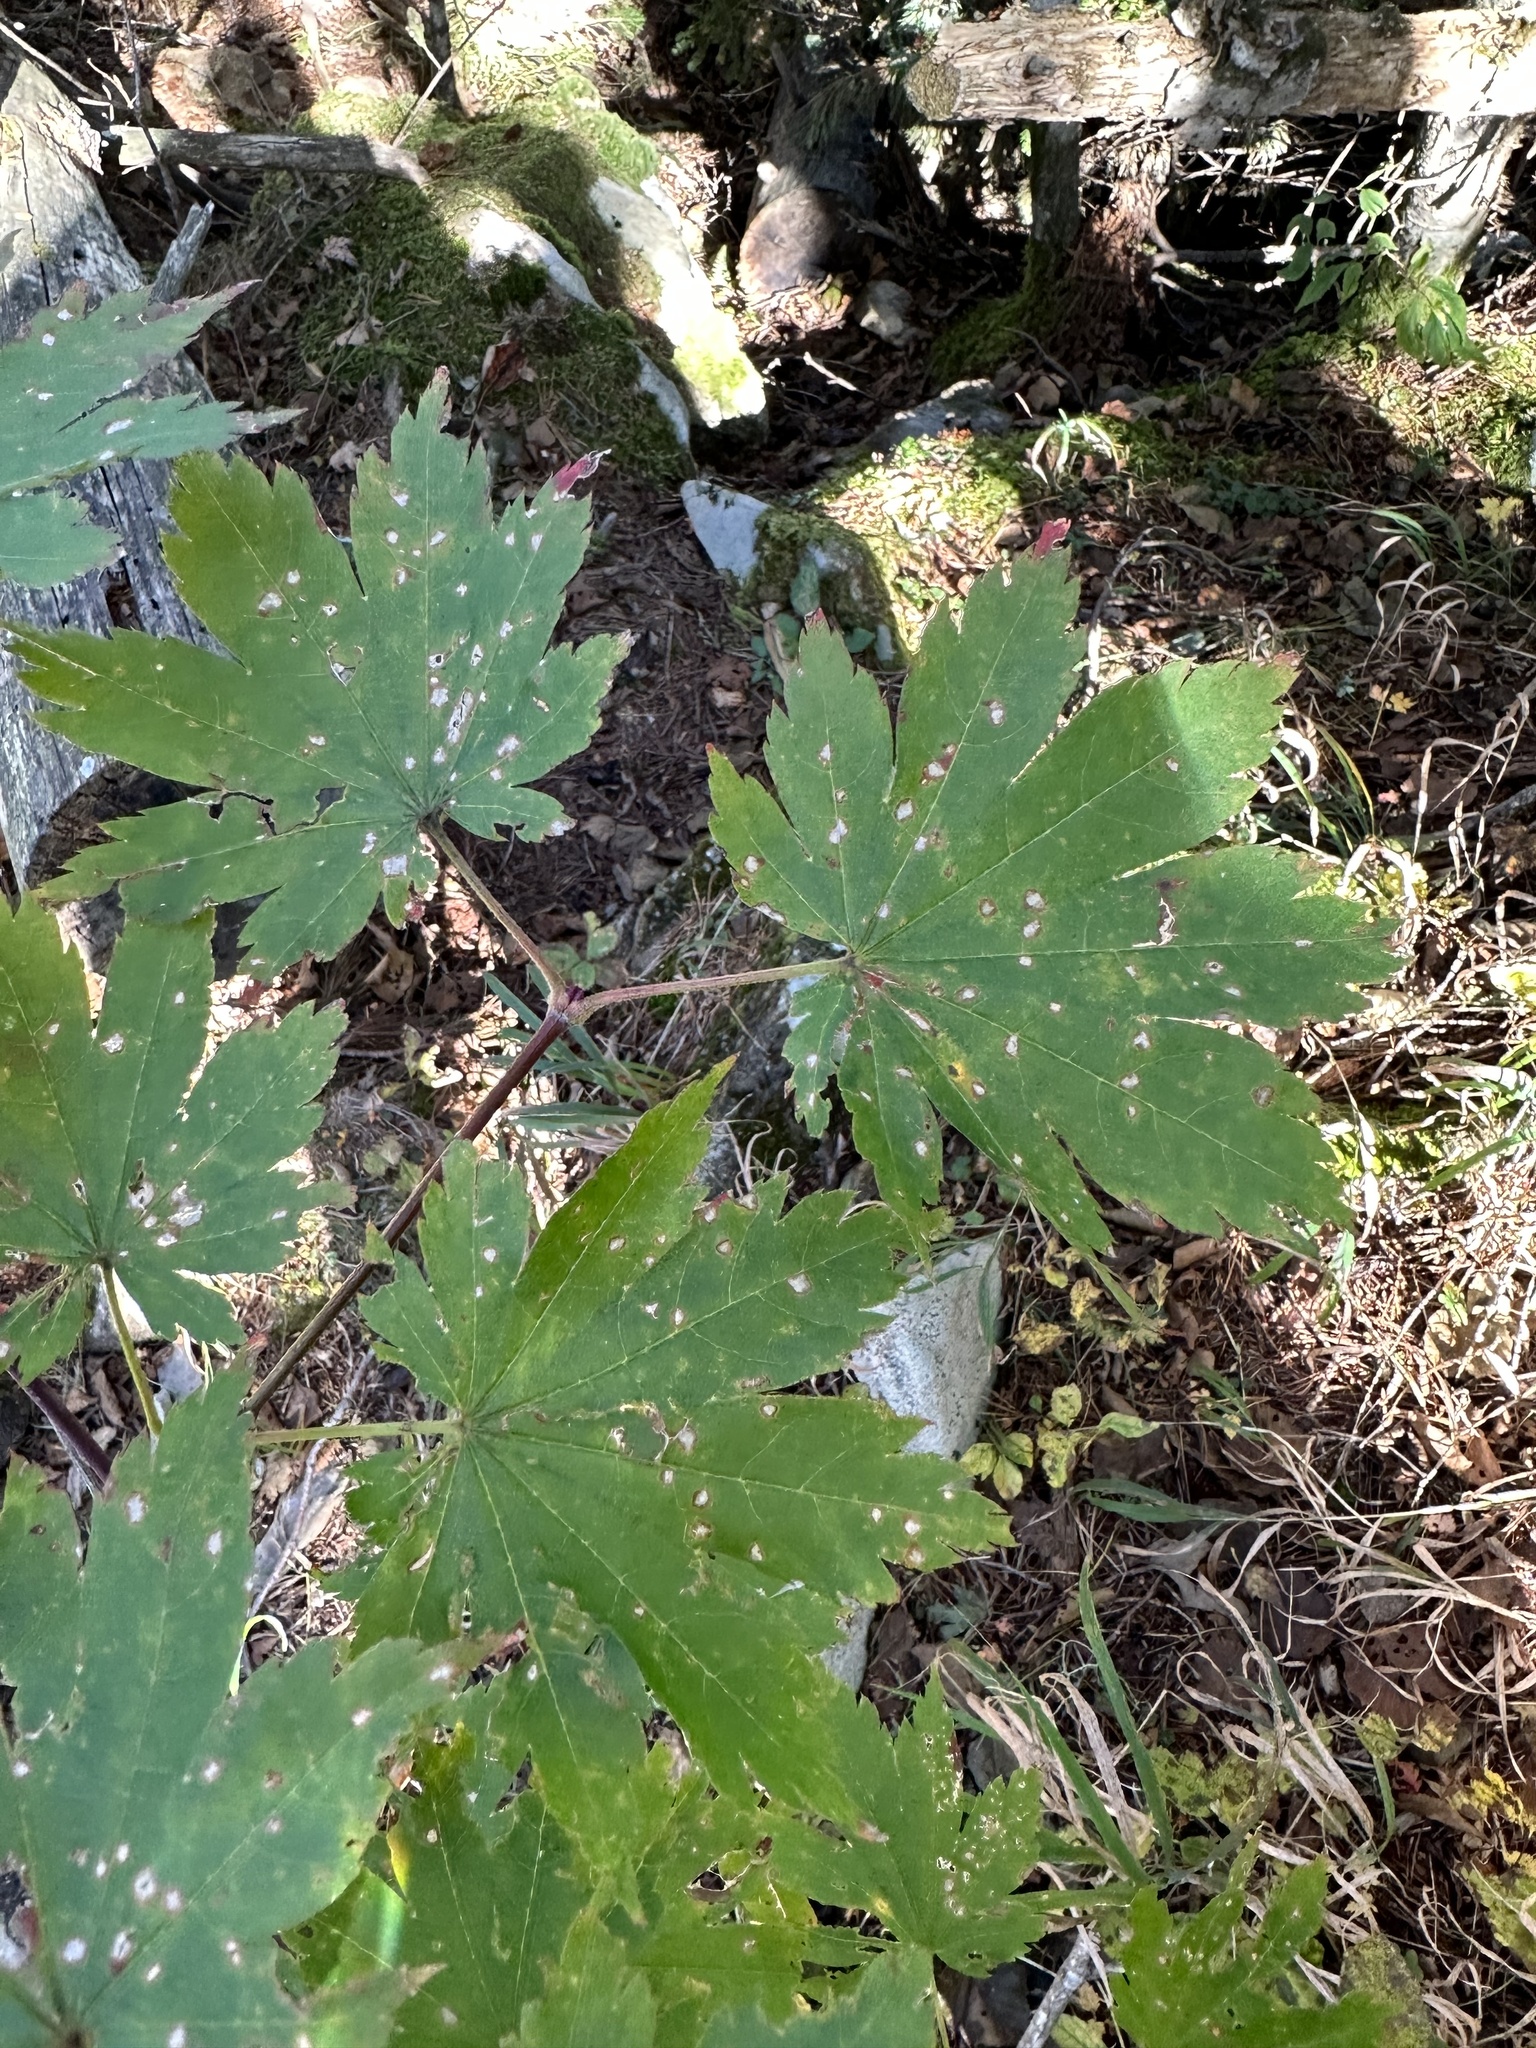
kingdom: Plantae
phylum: Tracheophyta
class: Magnoliopsida
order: Sapindales
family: Sapindaceae
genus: Acer
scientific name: Acer pseudosieboldianum
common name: Korean maple
